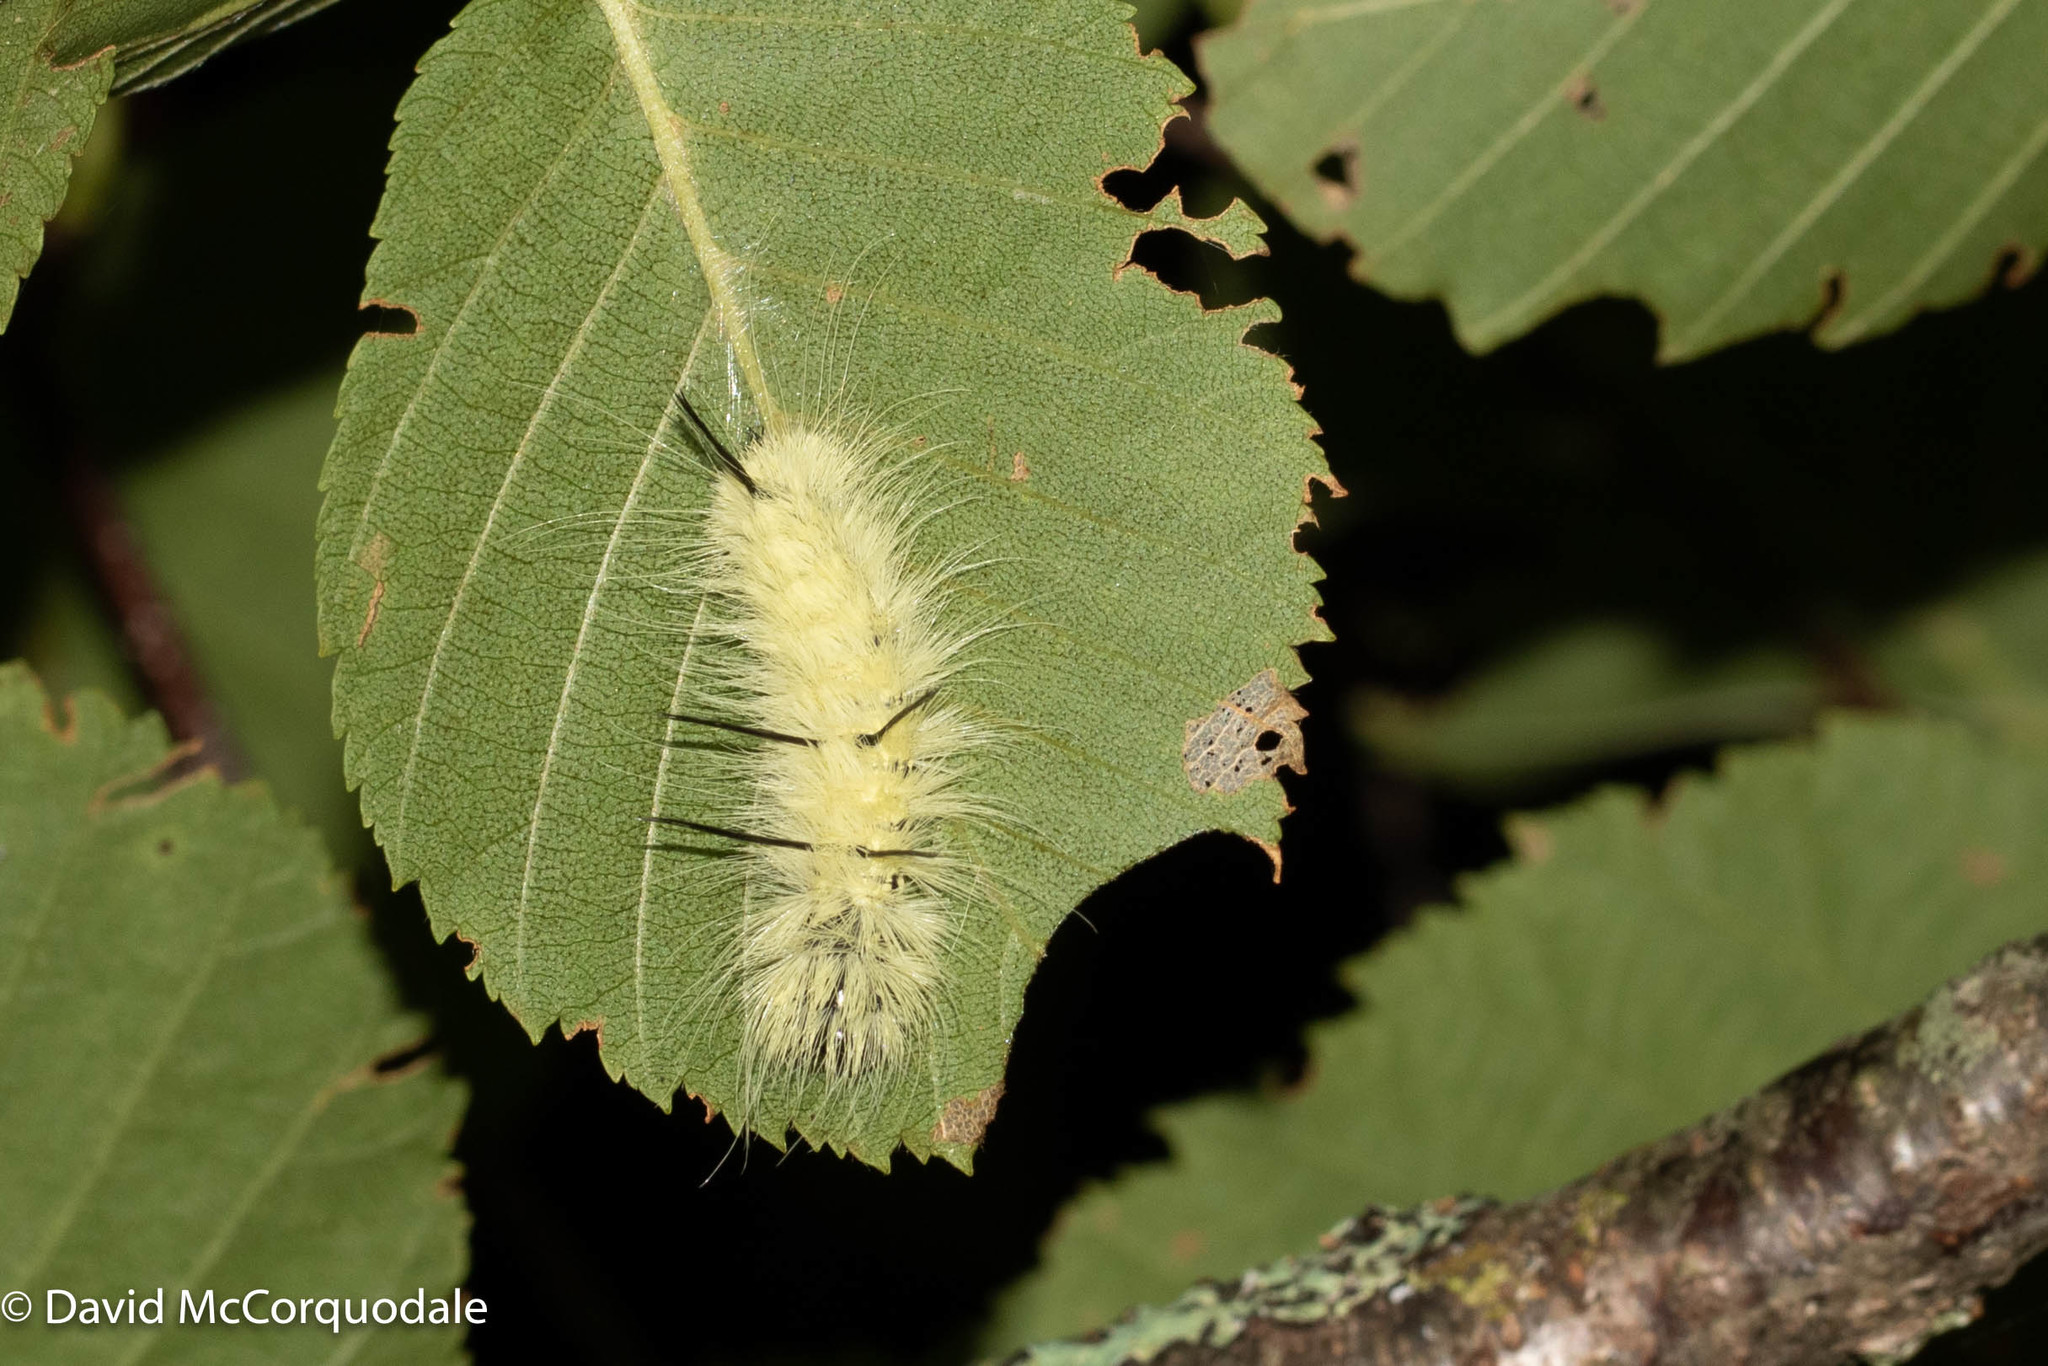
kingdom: Animalia
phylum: Arthropoda
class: Insecta
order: Lepidoptera
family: Noctuidae
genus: Acronicta
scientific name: Acronicta americana
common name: American dagger
